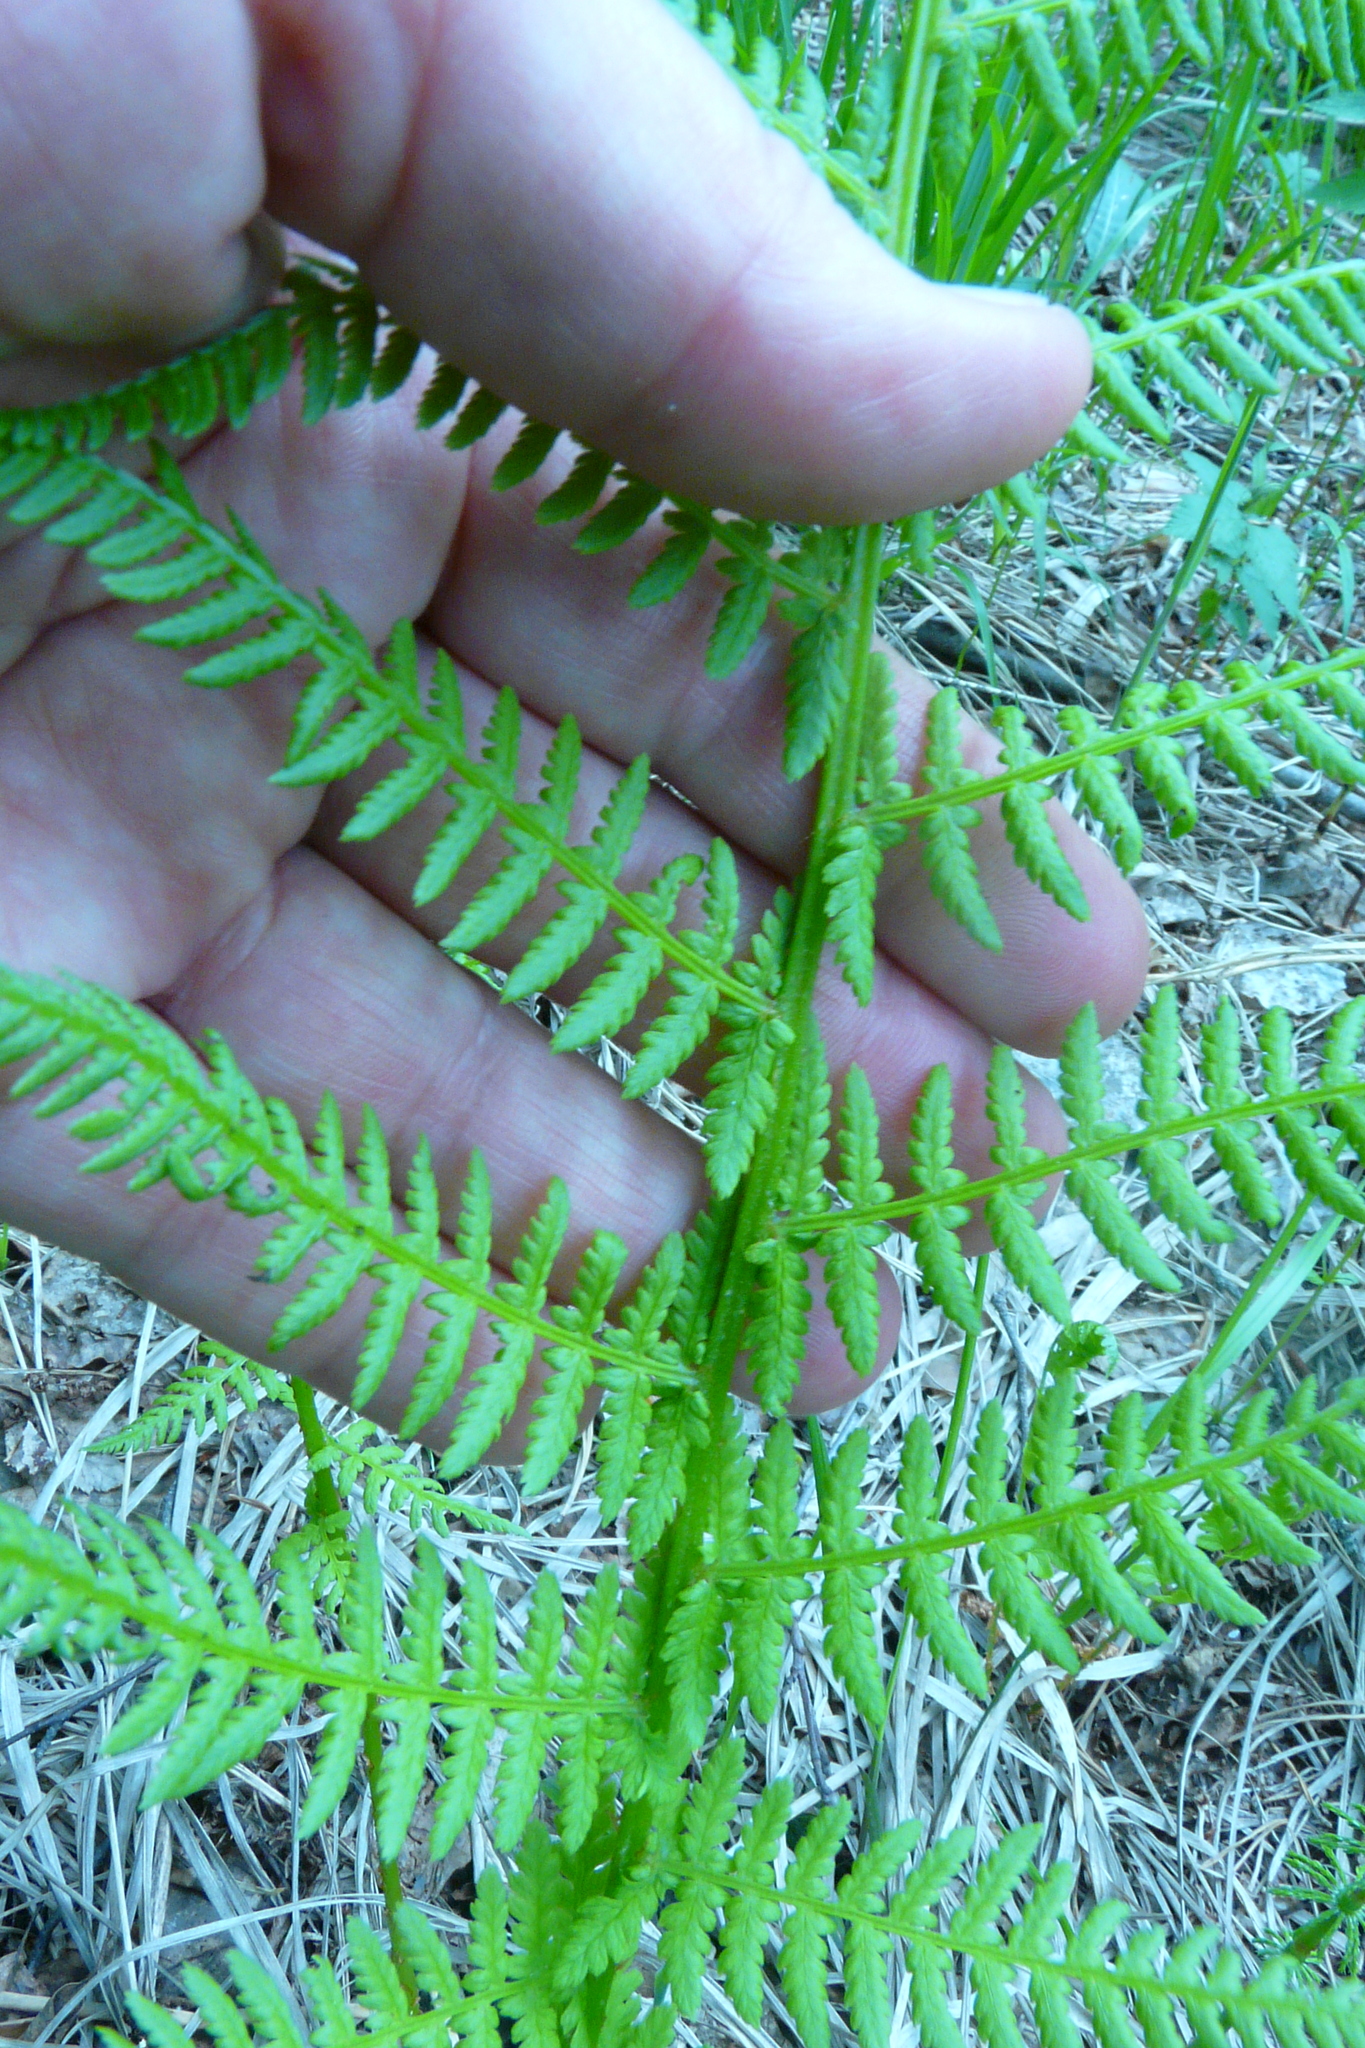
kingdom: Plantae
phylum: Tracheophyta
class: Polypodiopsida
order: Polypodiales
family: Athyriaceae
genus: Athyrium
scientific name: Athyrium filix-femina
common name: Lady fern
